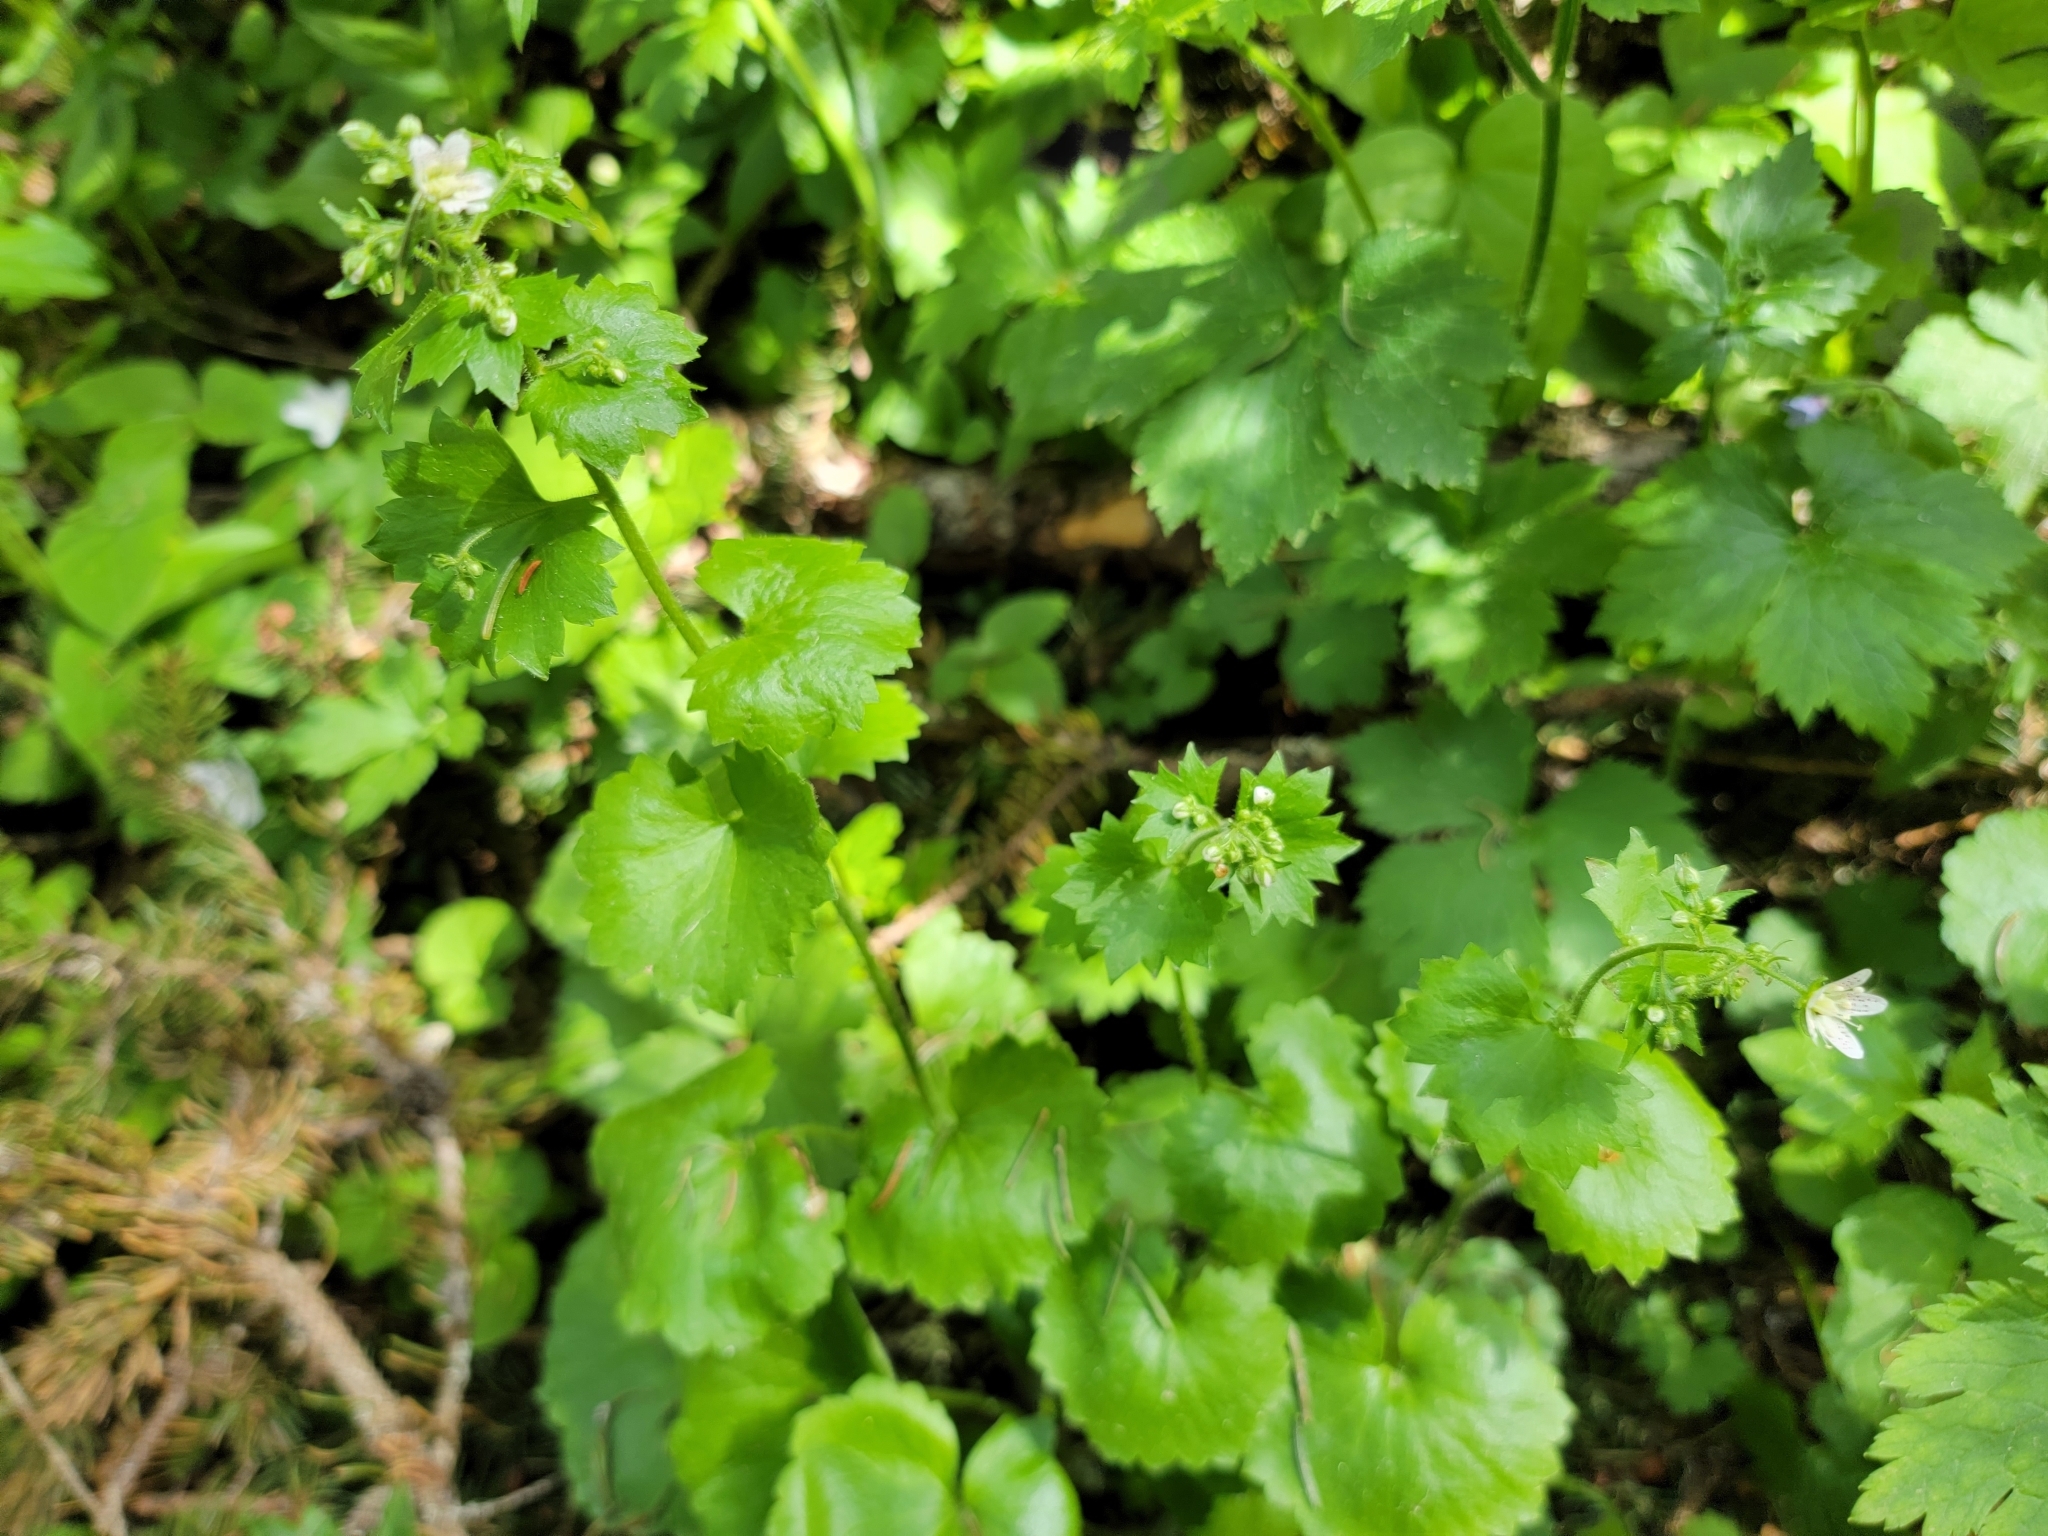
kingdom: Plantae
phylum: Tracheophyta
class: Magnoliopsida
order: Saxifragales
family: Saxifragaceae
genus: Saxifraga
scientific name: Saxifraga rotundifolia
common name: Round-leaved saxifrage
